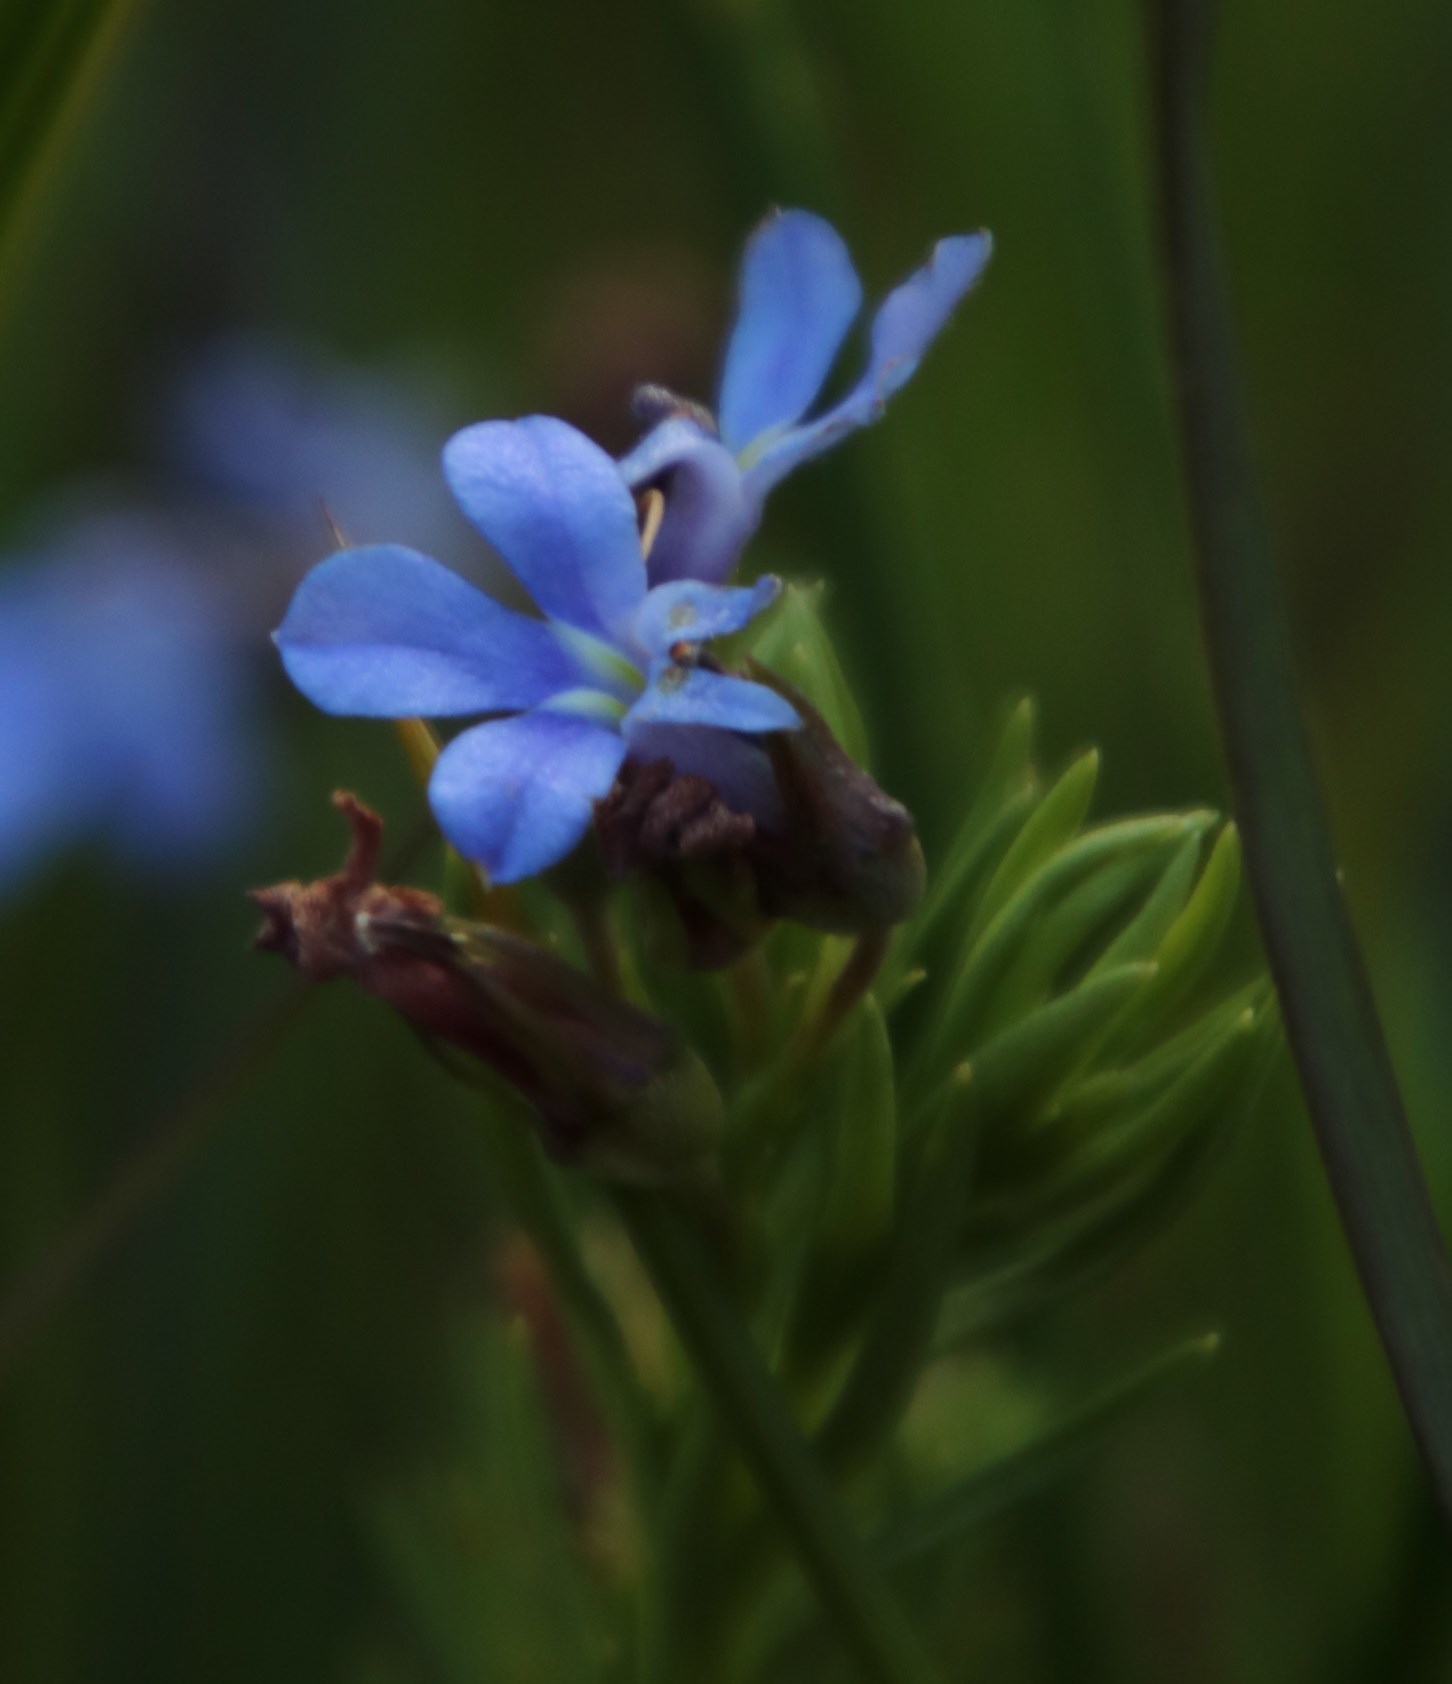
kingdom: Plantae
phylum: Tracheophyta
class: Magnoliopsida
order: Asterales
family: Campanulaceae
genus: Lobelia
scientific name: Lobelia pinifolia
